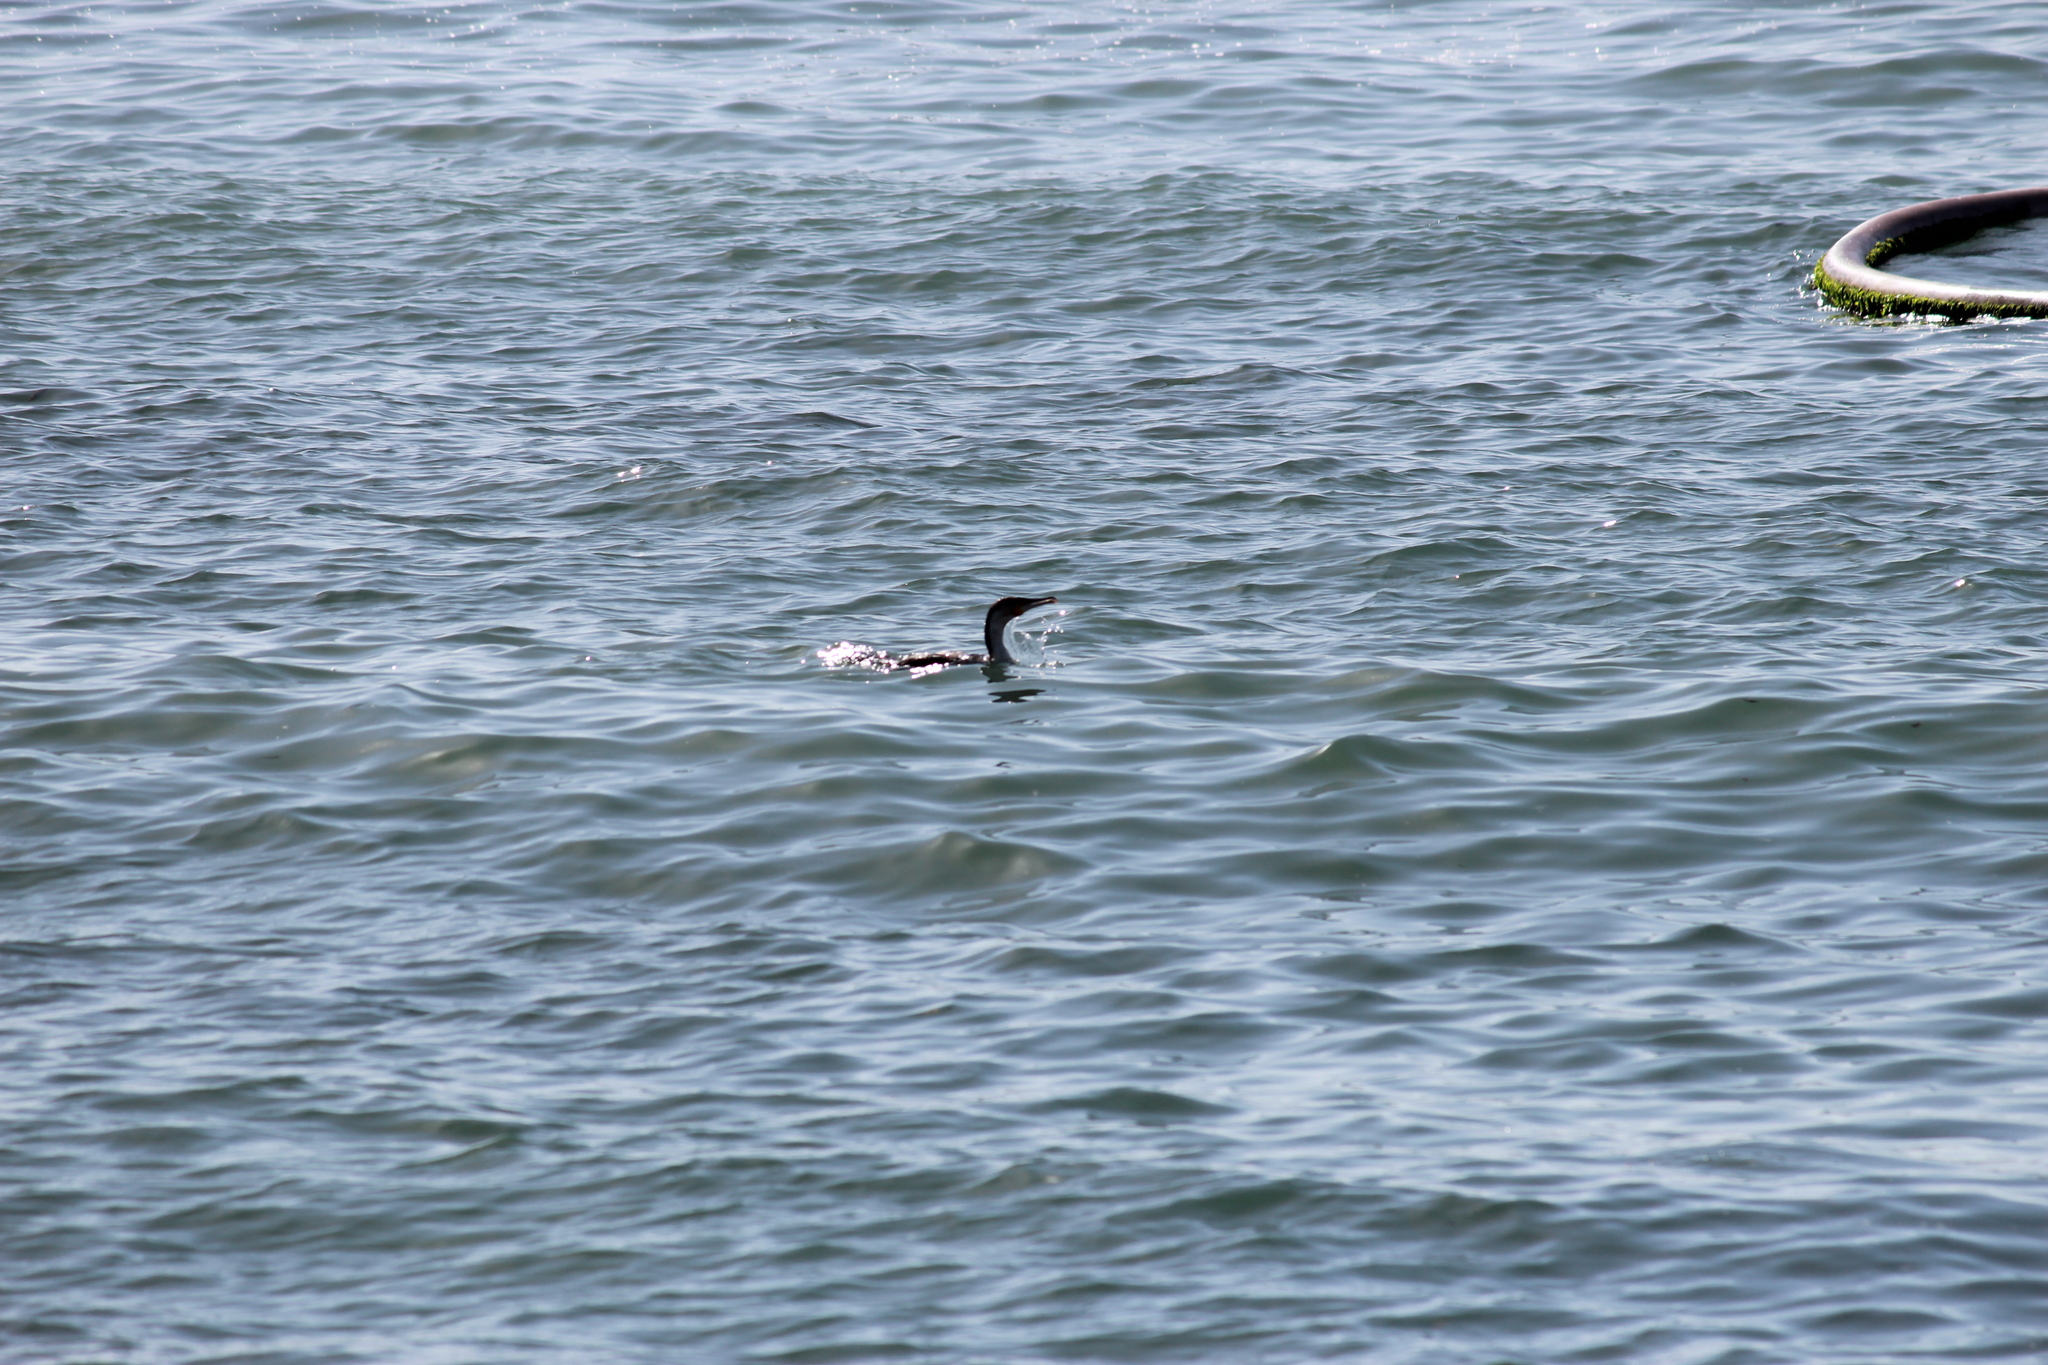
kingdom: Animalia
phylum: Chordata
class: Aves
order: Suliformes
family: Phalacrocoracidae
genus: Phalacrocorax
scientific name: Phalacrocorax carbo
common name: Great cormorant
